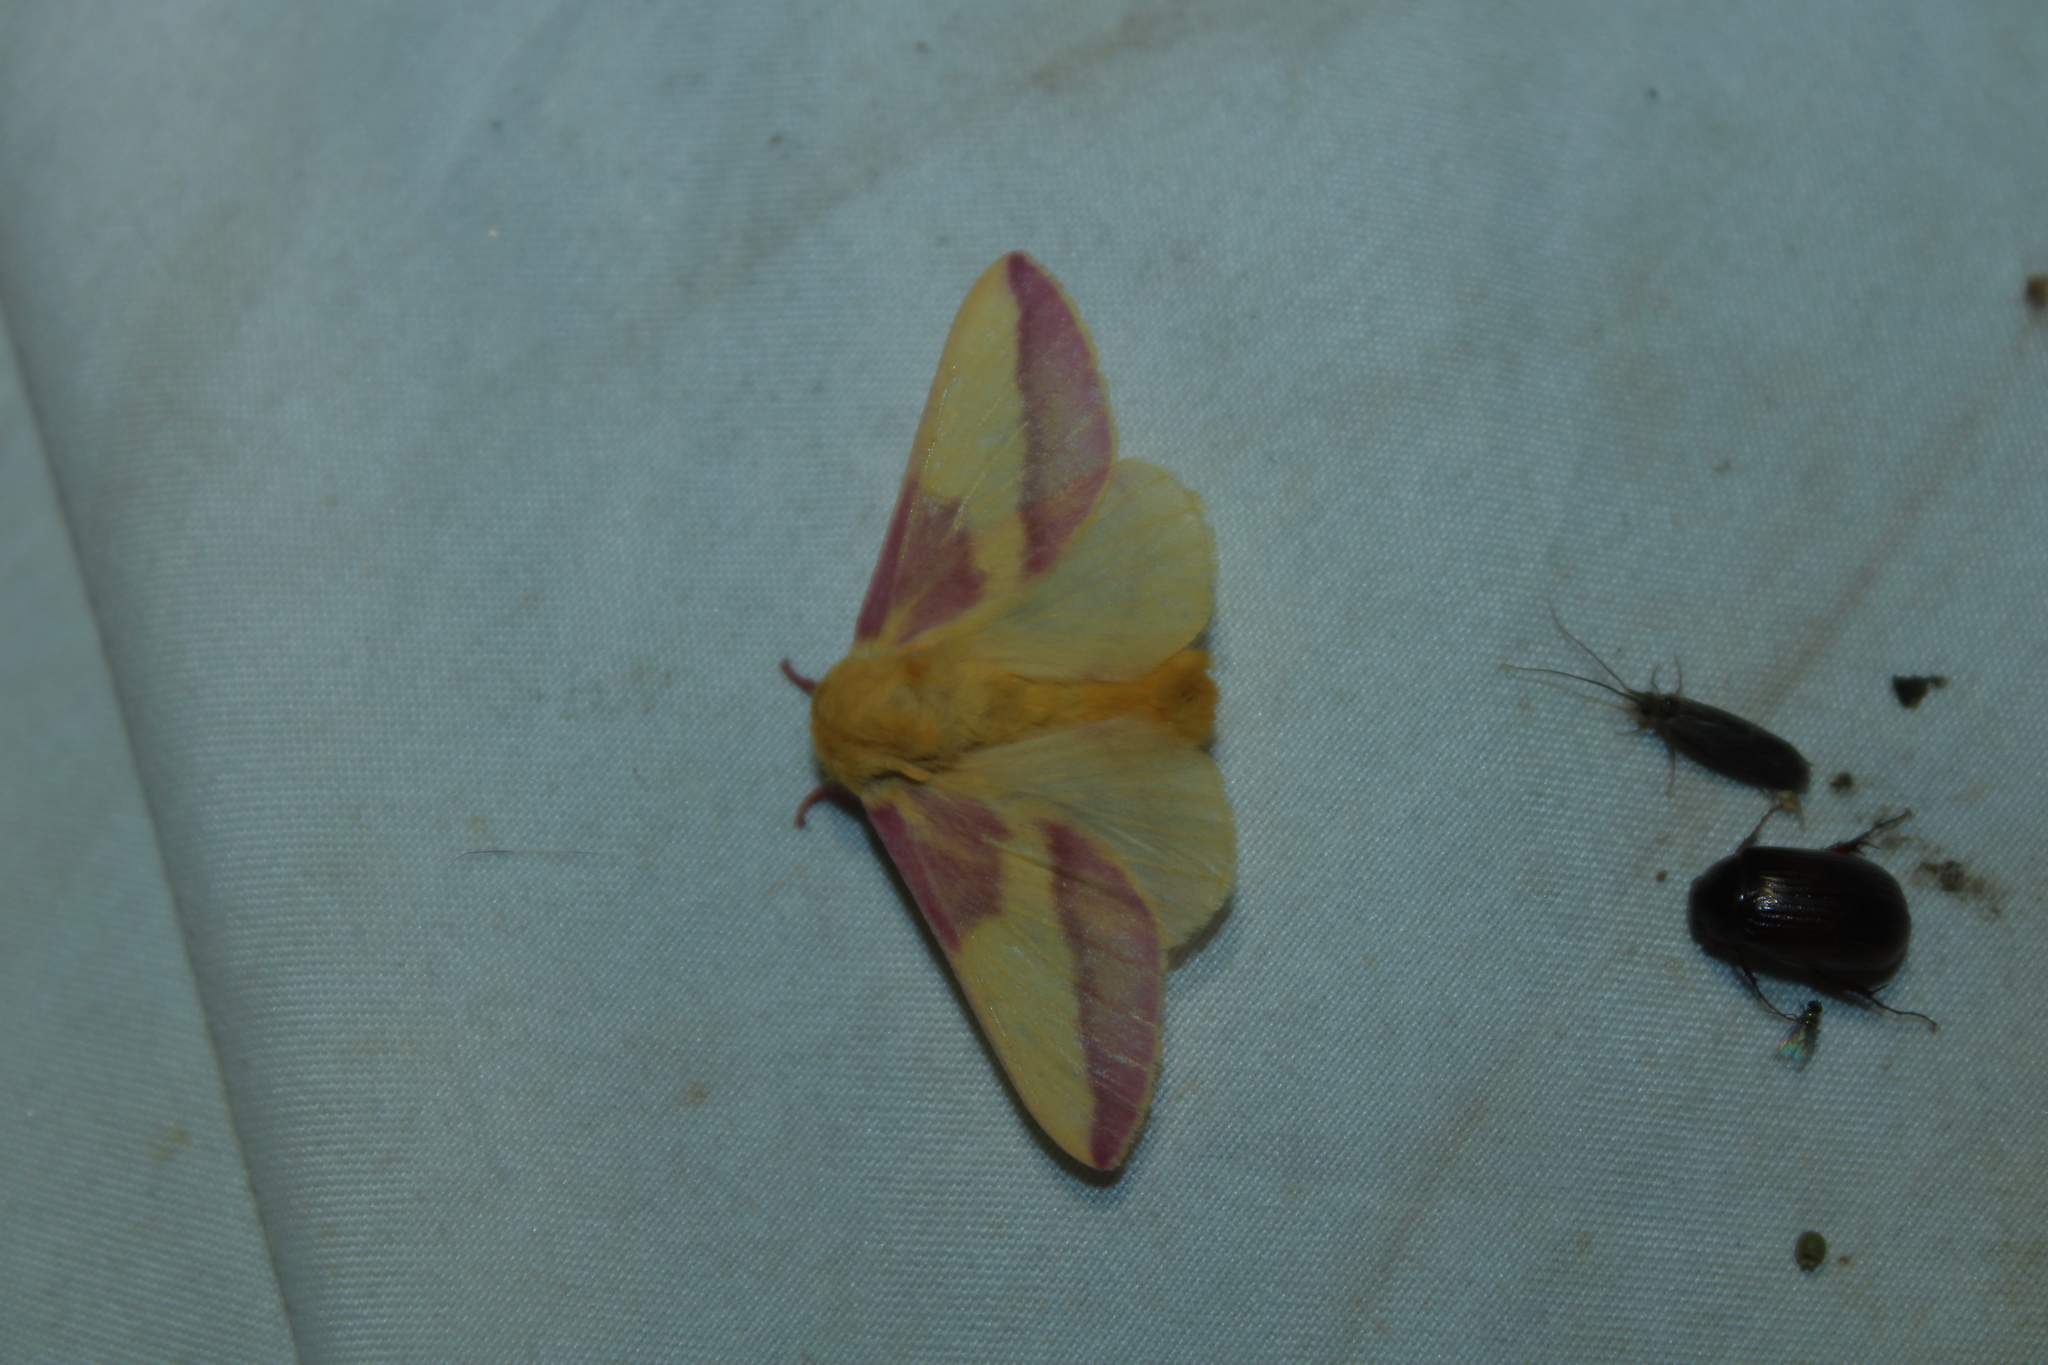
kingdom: Animalia
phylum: Arthropoda
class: Insecta
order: Lepidoptera
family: Saturniidae
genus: Dryocampa
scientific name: Dryocampa rubicunda
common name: Rosy maple moth
